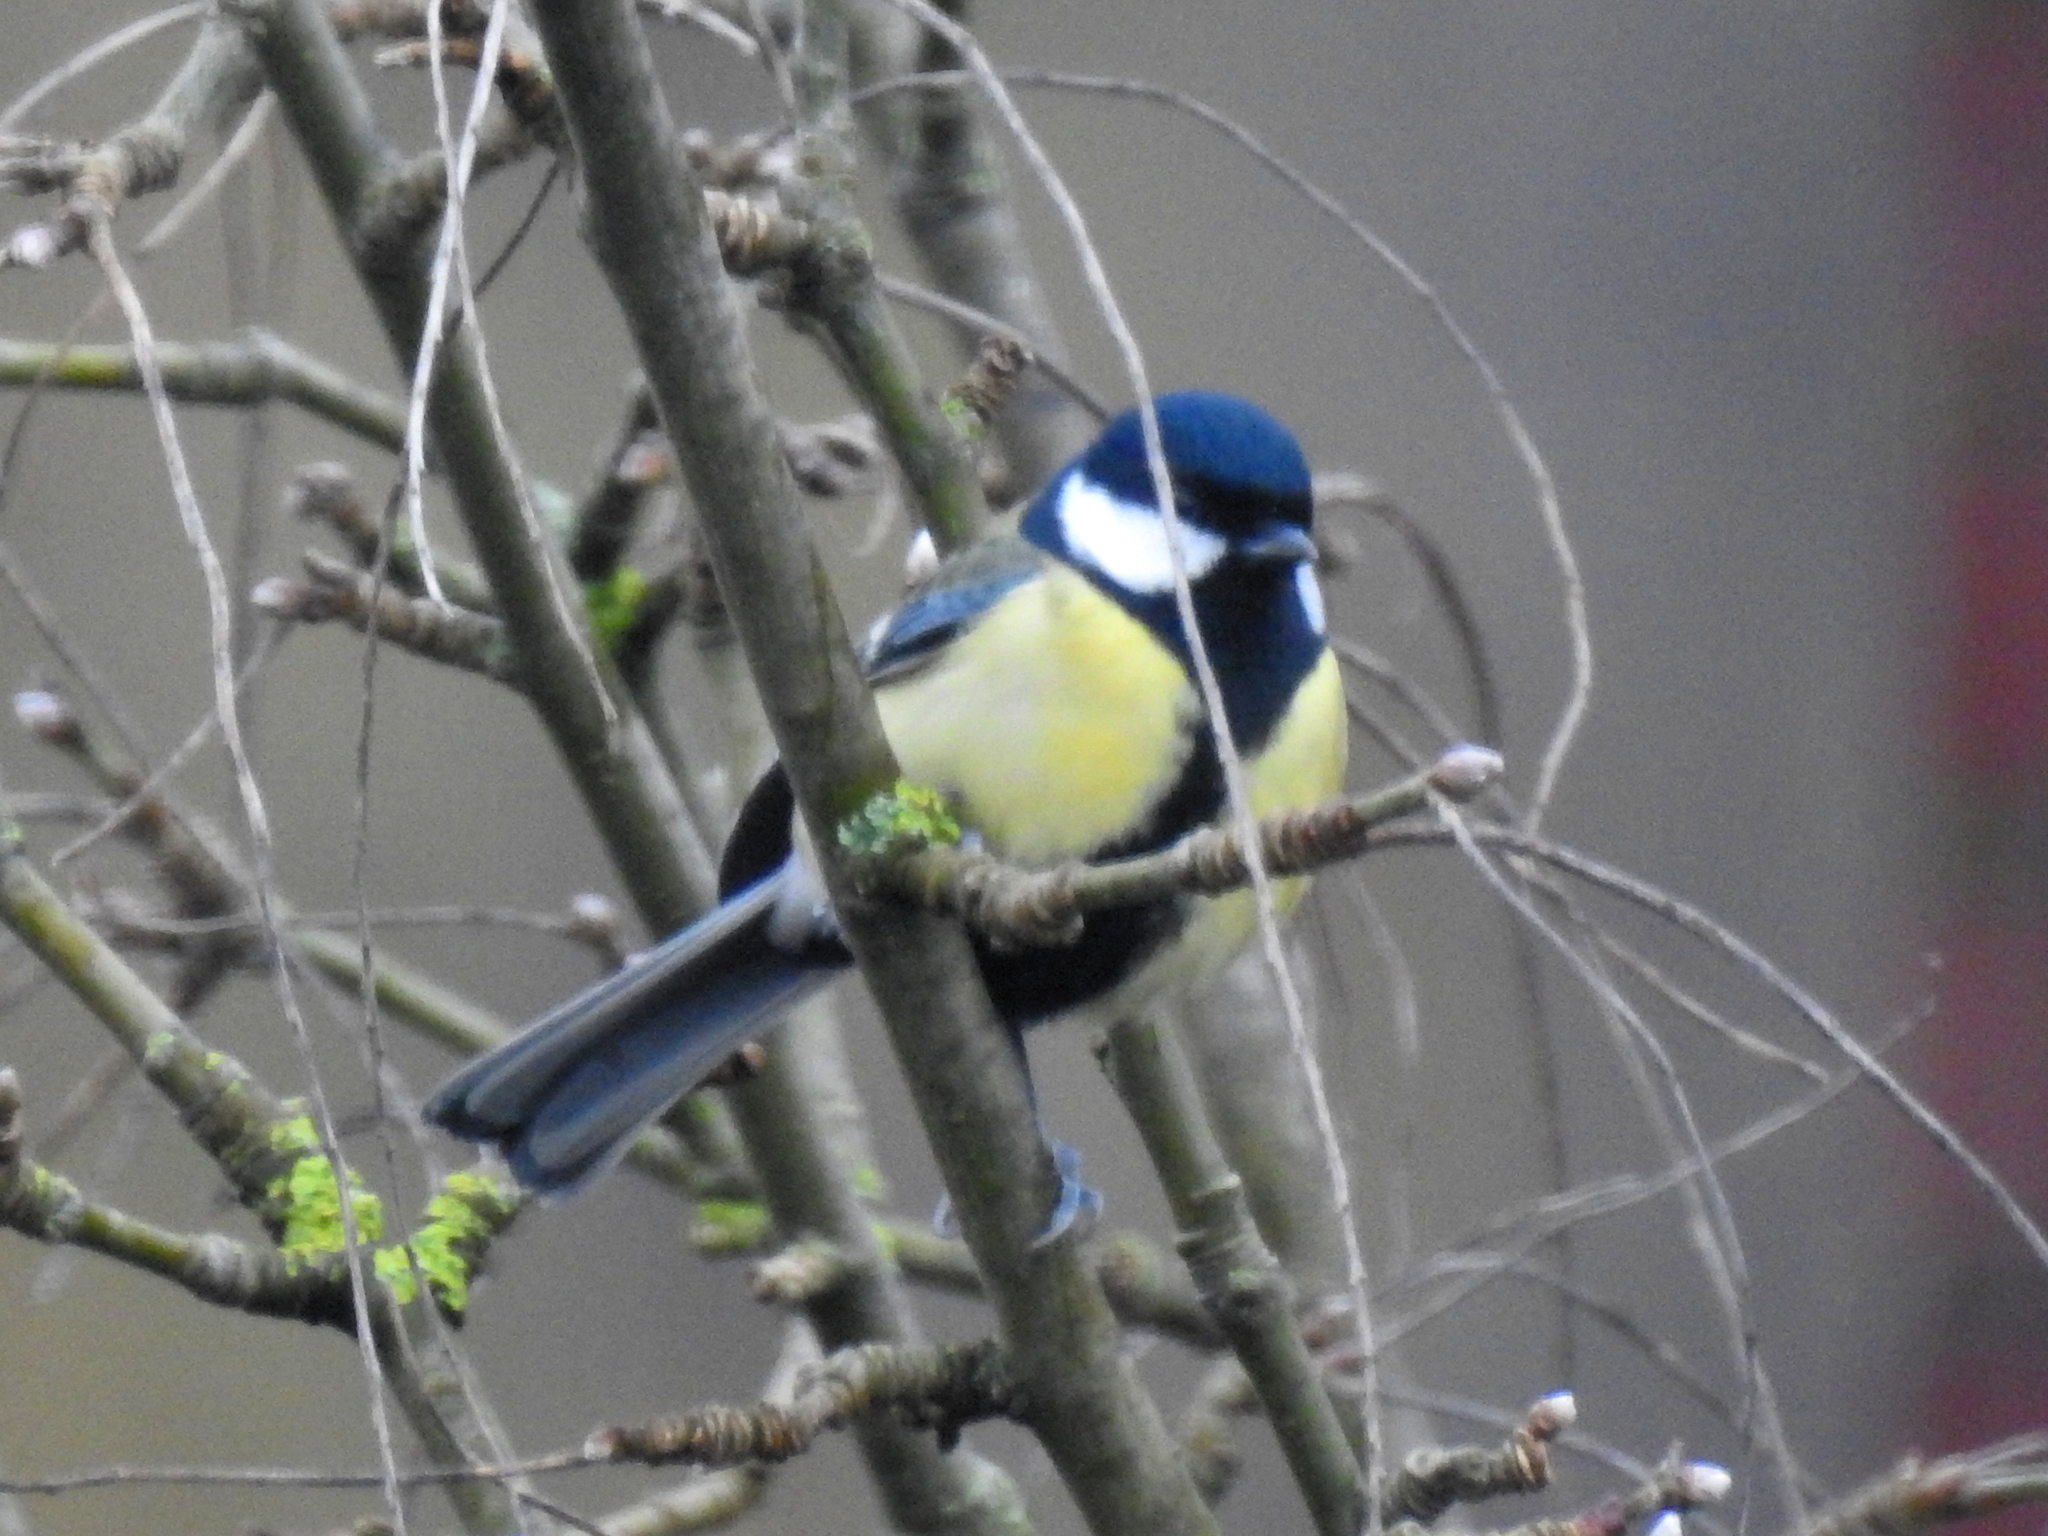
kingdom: Animalia
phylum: Chordata
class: Aves
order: Passeriformes
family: Paridae
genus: Parus
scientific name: Parus major
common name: Great tit
